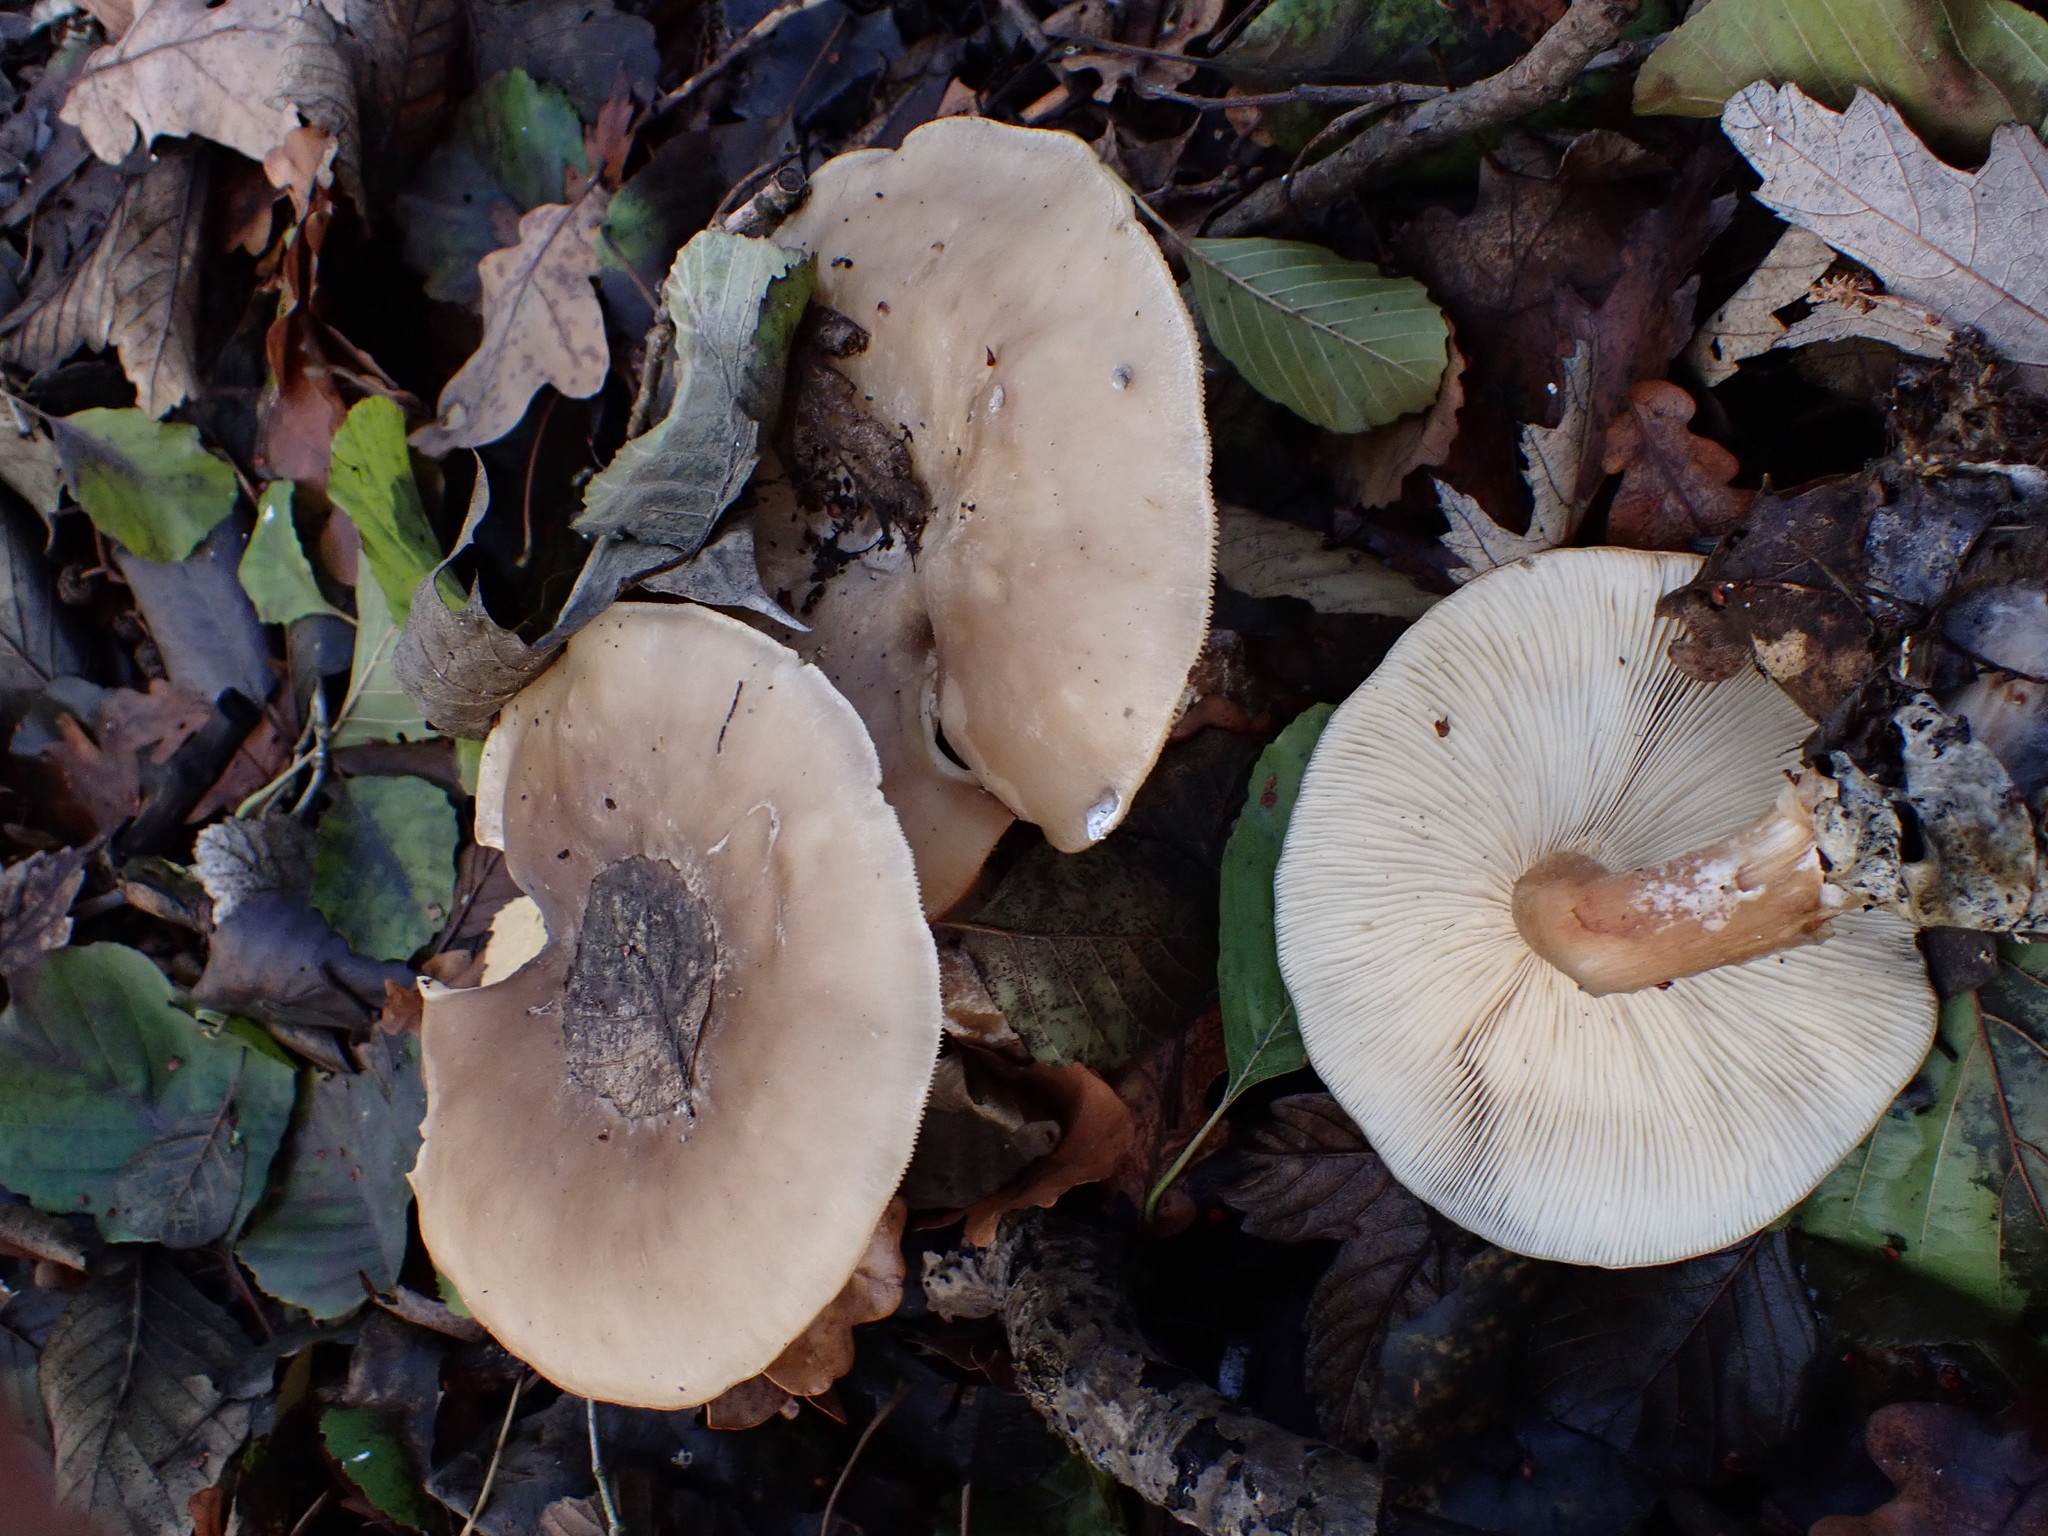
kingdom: Fungi
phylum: Basidiomycota
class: Agaricomycetes
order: Agaricales
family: Tricholomataceae
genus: Clitocybe
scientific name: Clitocybe nebularis
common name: Clouded agaric
